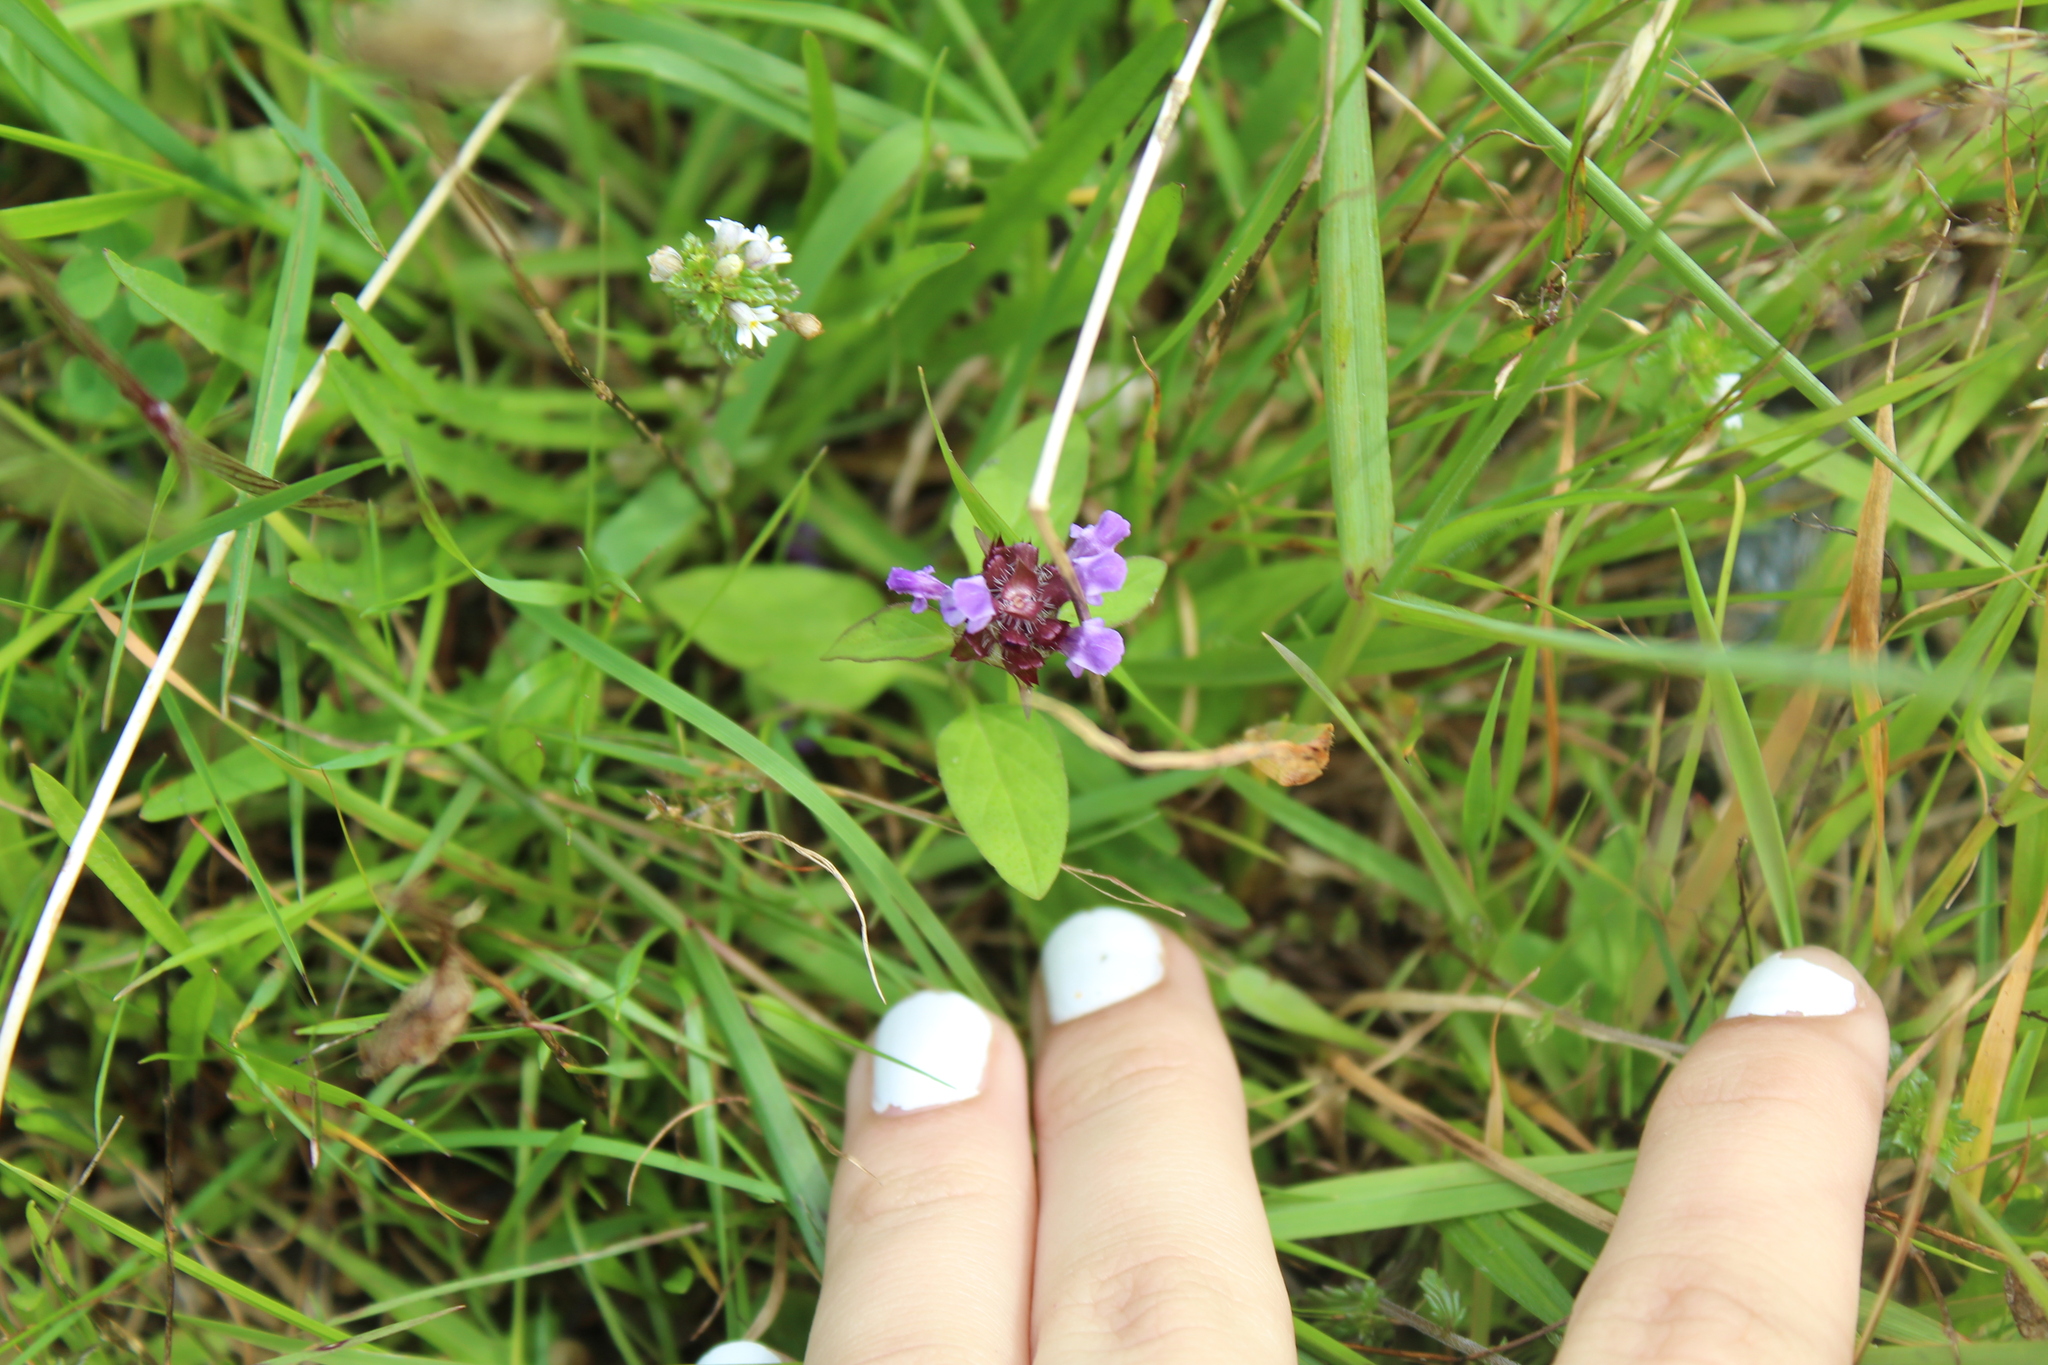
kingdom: Plantae
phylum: Tracheophyta
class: Magnoliopsida
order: Lamiales
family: Lamiaceae
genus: Prunella
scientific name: Prunella vulgaris
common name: Heal-all
